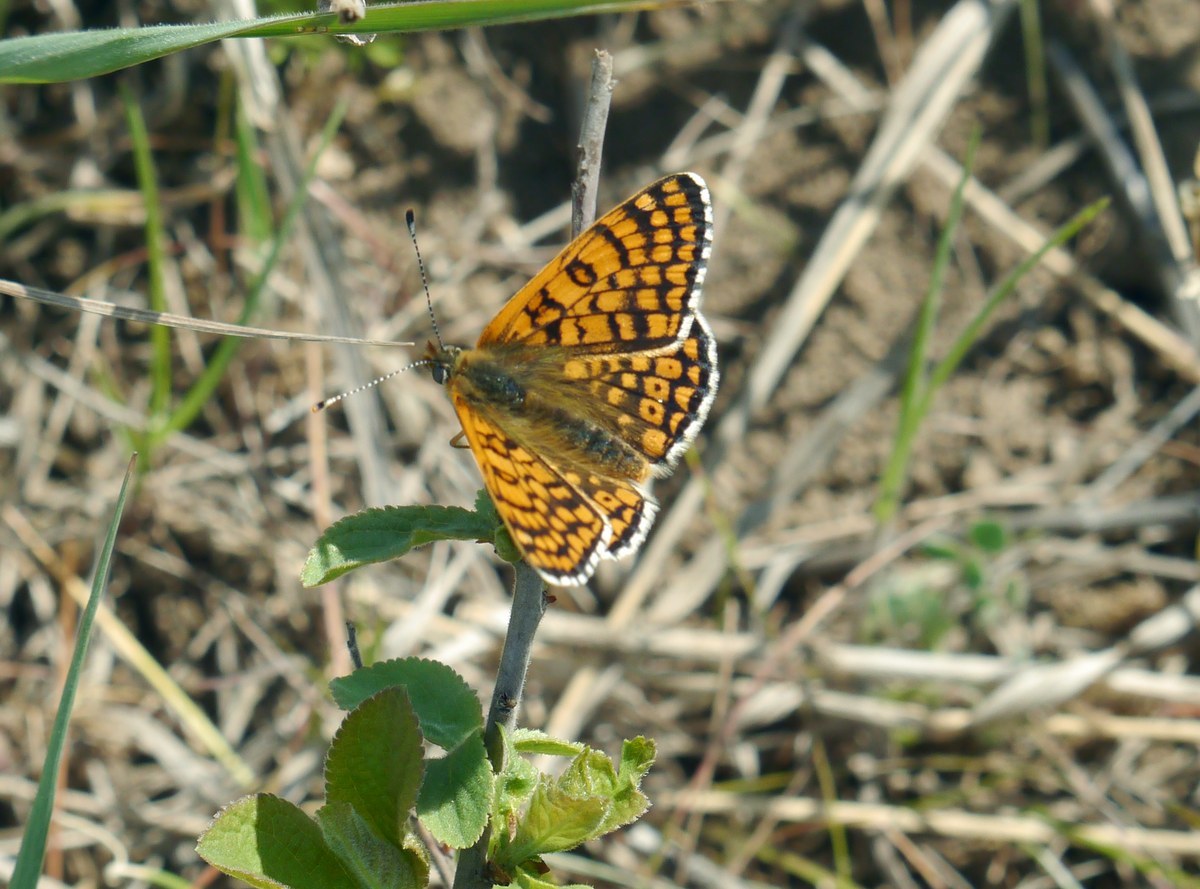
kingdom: Animalia
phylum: Arthropoda
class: Insecta
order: Lepidoptera
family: Nymphalidae
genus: Melitaea
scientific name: Melitaea cinxia
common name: Glanville fritillary
